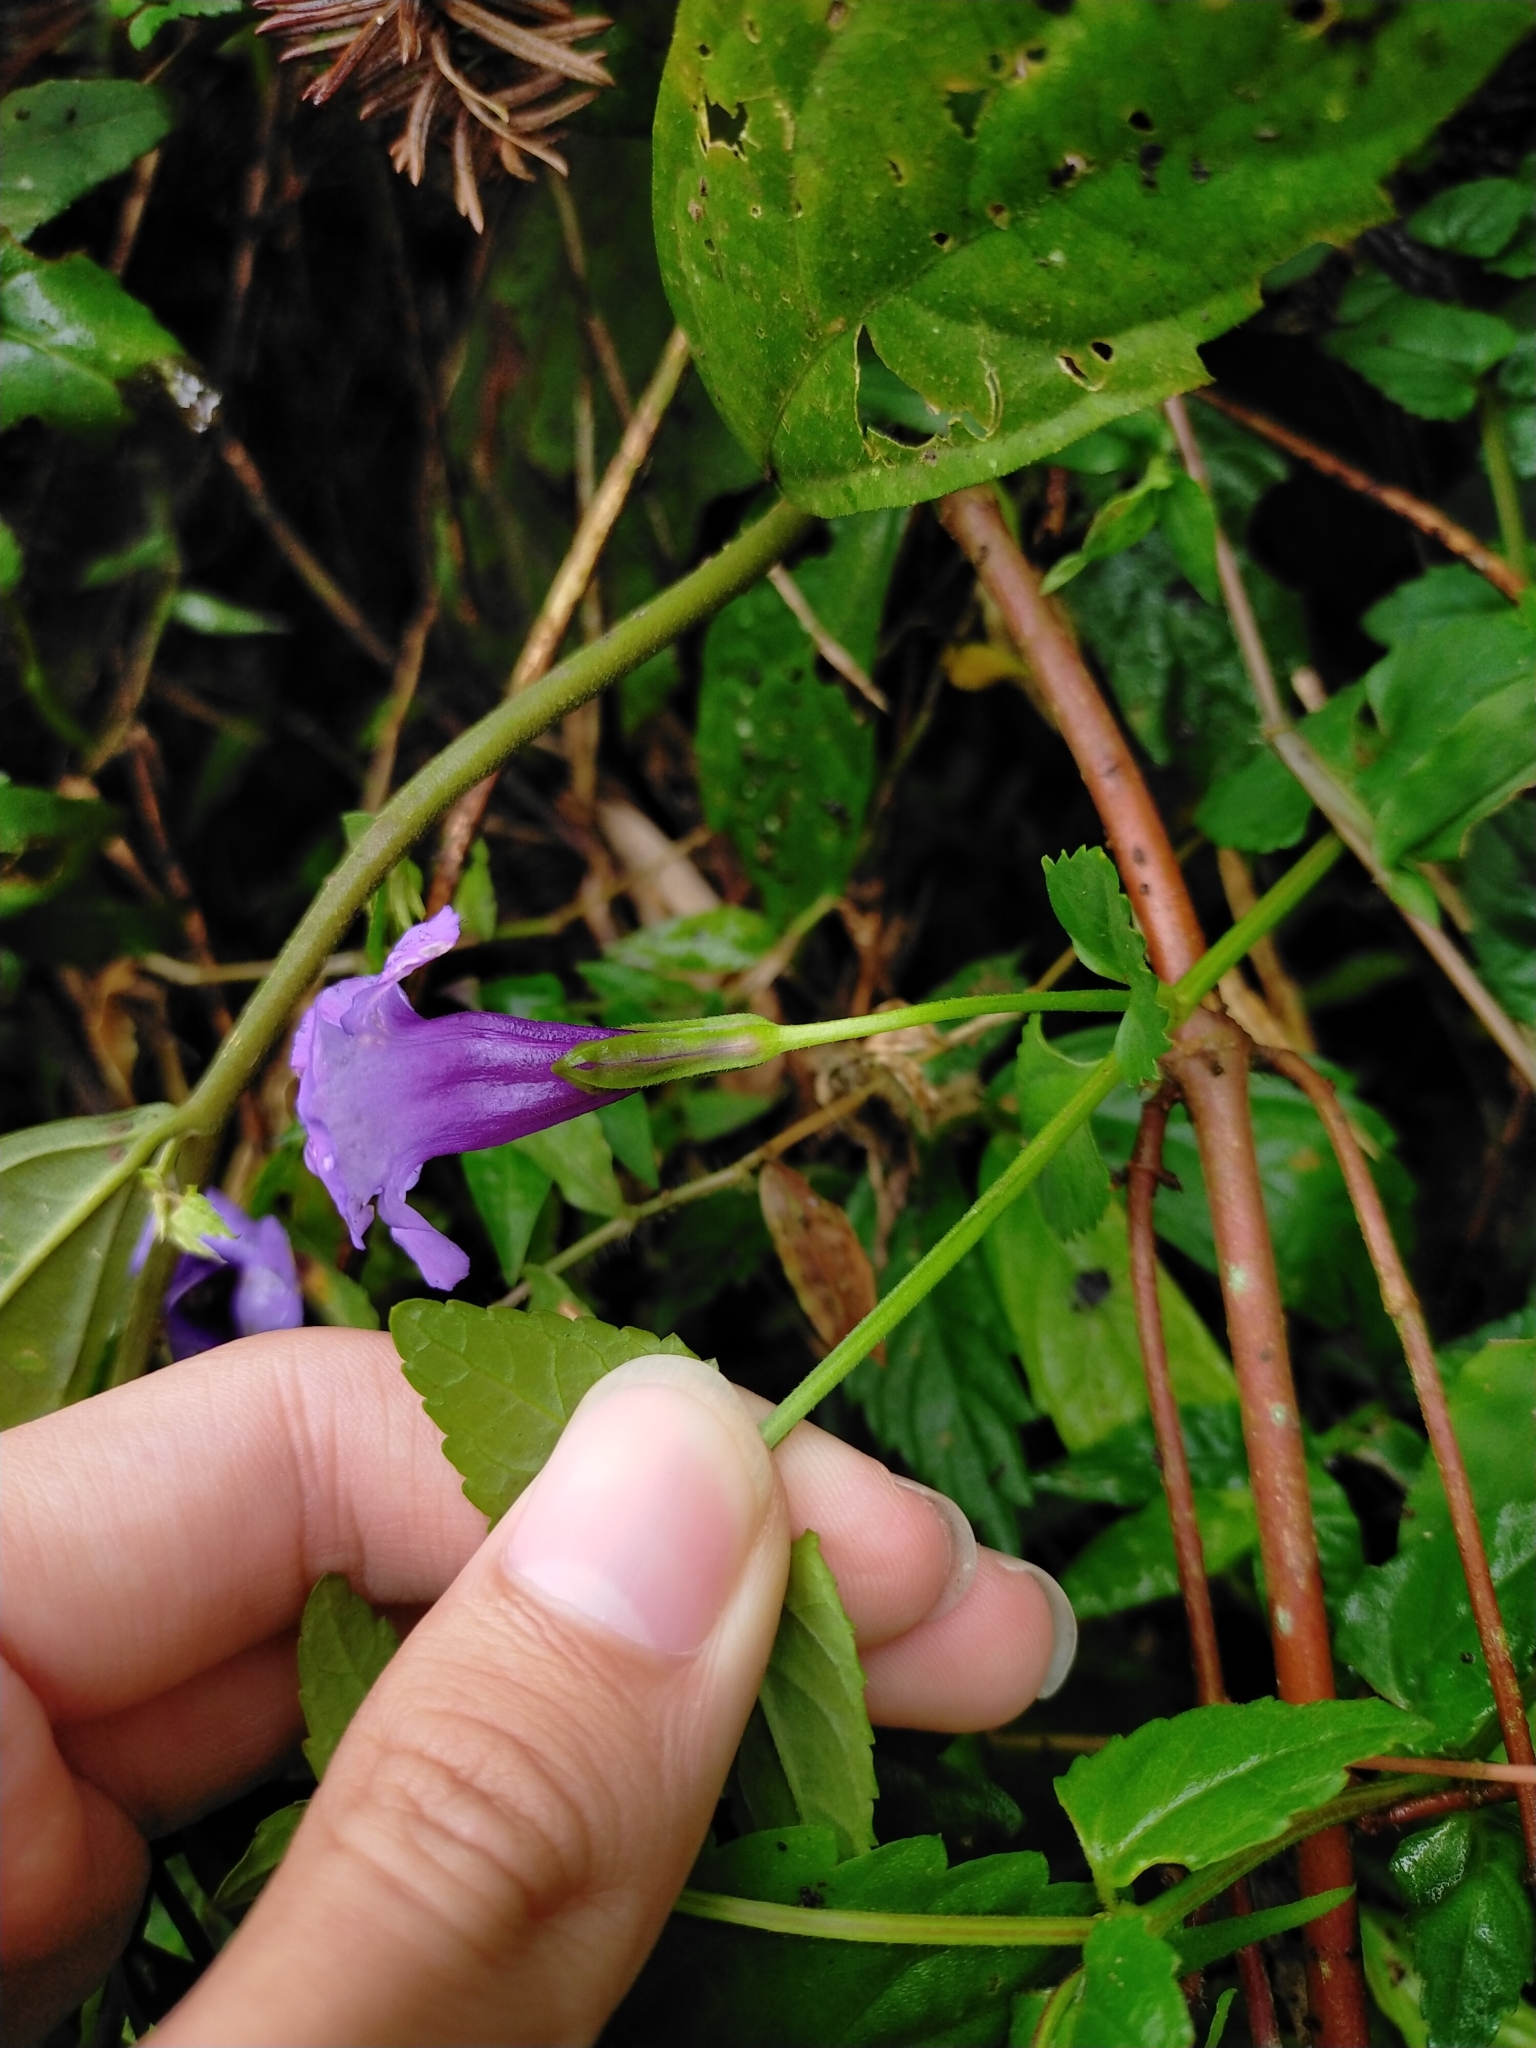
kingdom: Plantae
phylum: Tracheophyta
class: Magnoliopsida
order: Lamiales
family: Linderniaceae
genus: Torenia
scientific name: Torenia concolor
